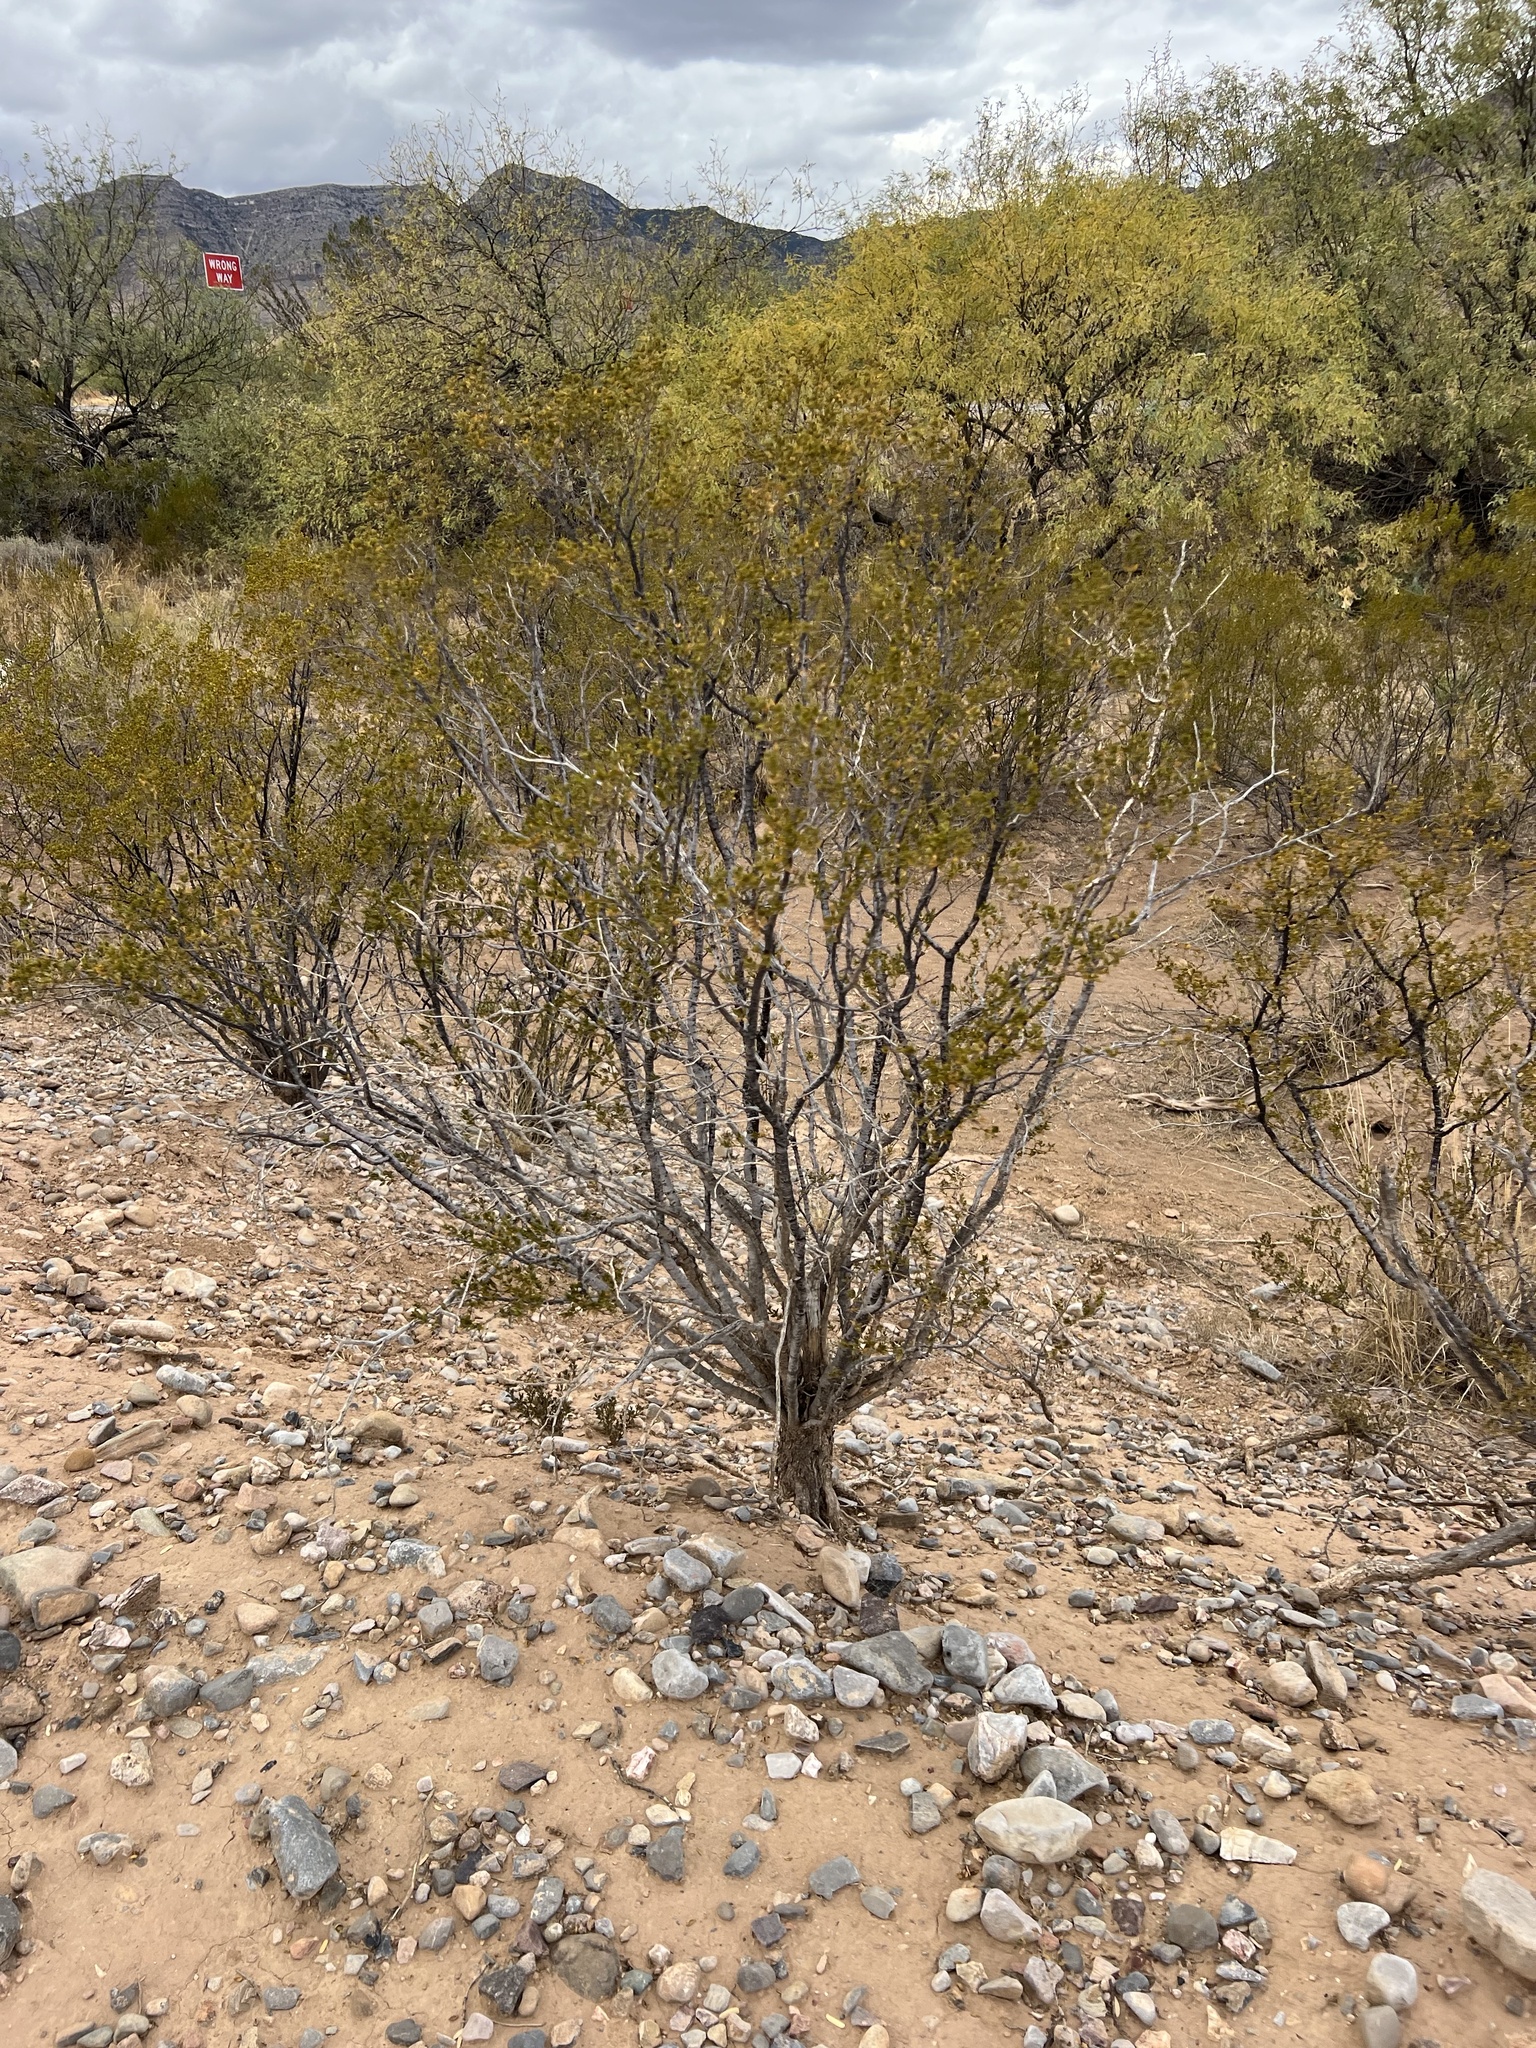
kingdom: Plantae
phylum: Tracheophyta
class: Magnoliopsida
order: Zygophyllales
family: Zygophyllaceae
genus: Larrea
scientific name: Larrea tridentata
